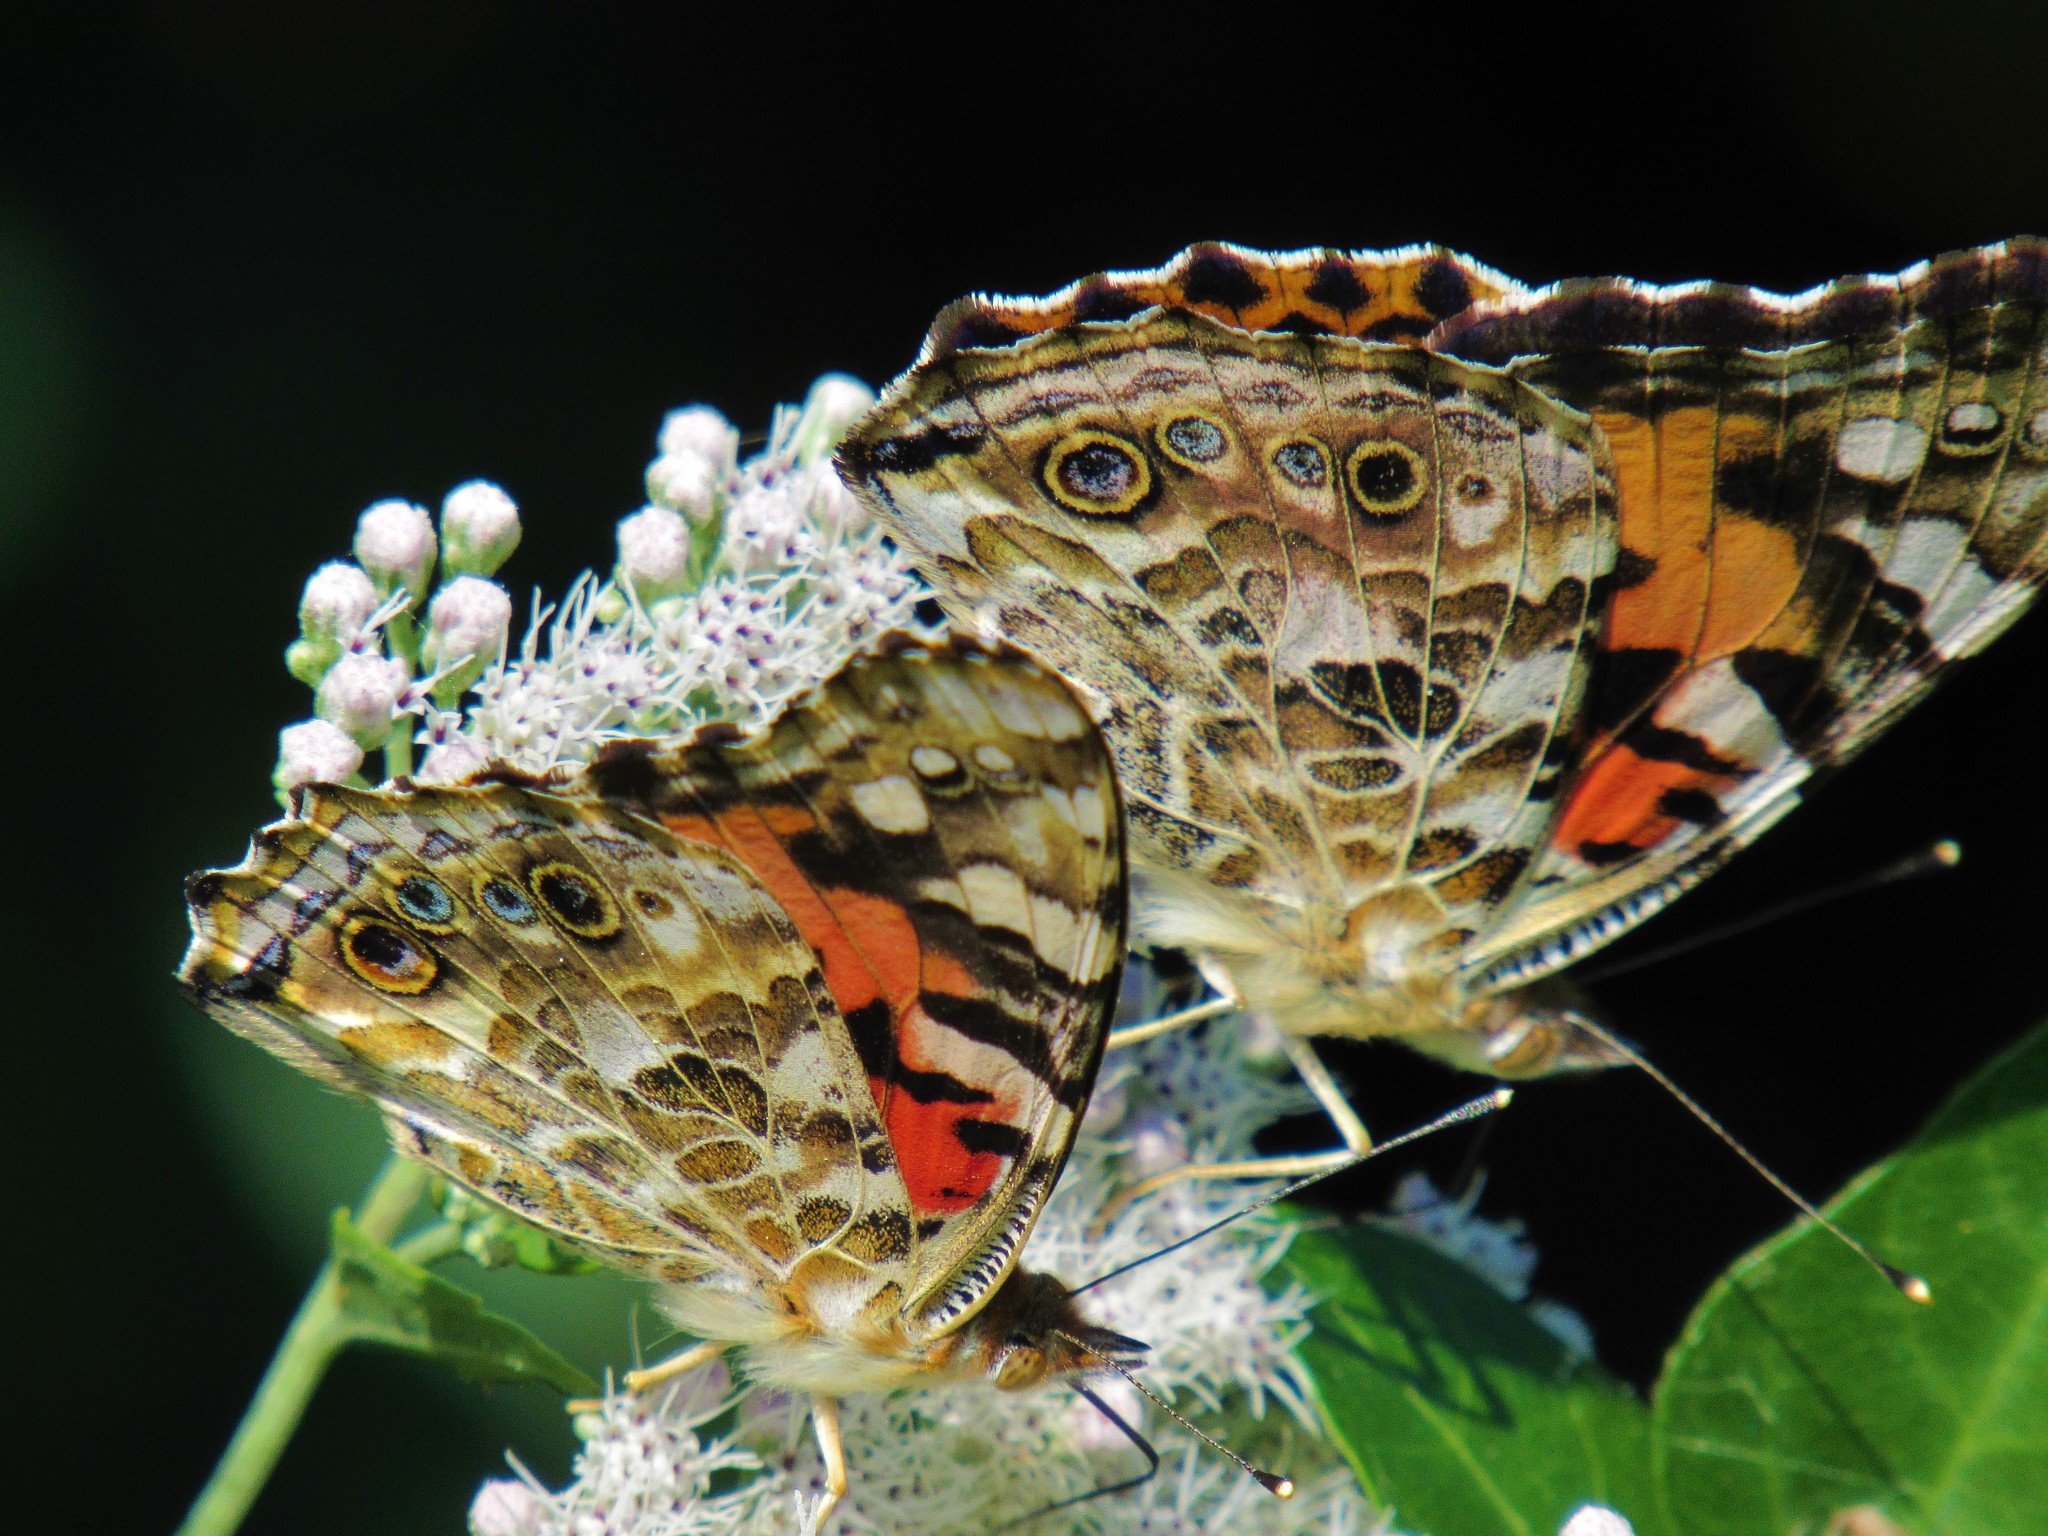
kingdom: Animalia
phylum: Arthropoda
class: Insecta
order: Lepidoptera
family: Nymphalidae
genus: Vanessa
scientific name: Vanessa cardui
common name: Painted lady
